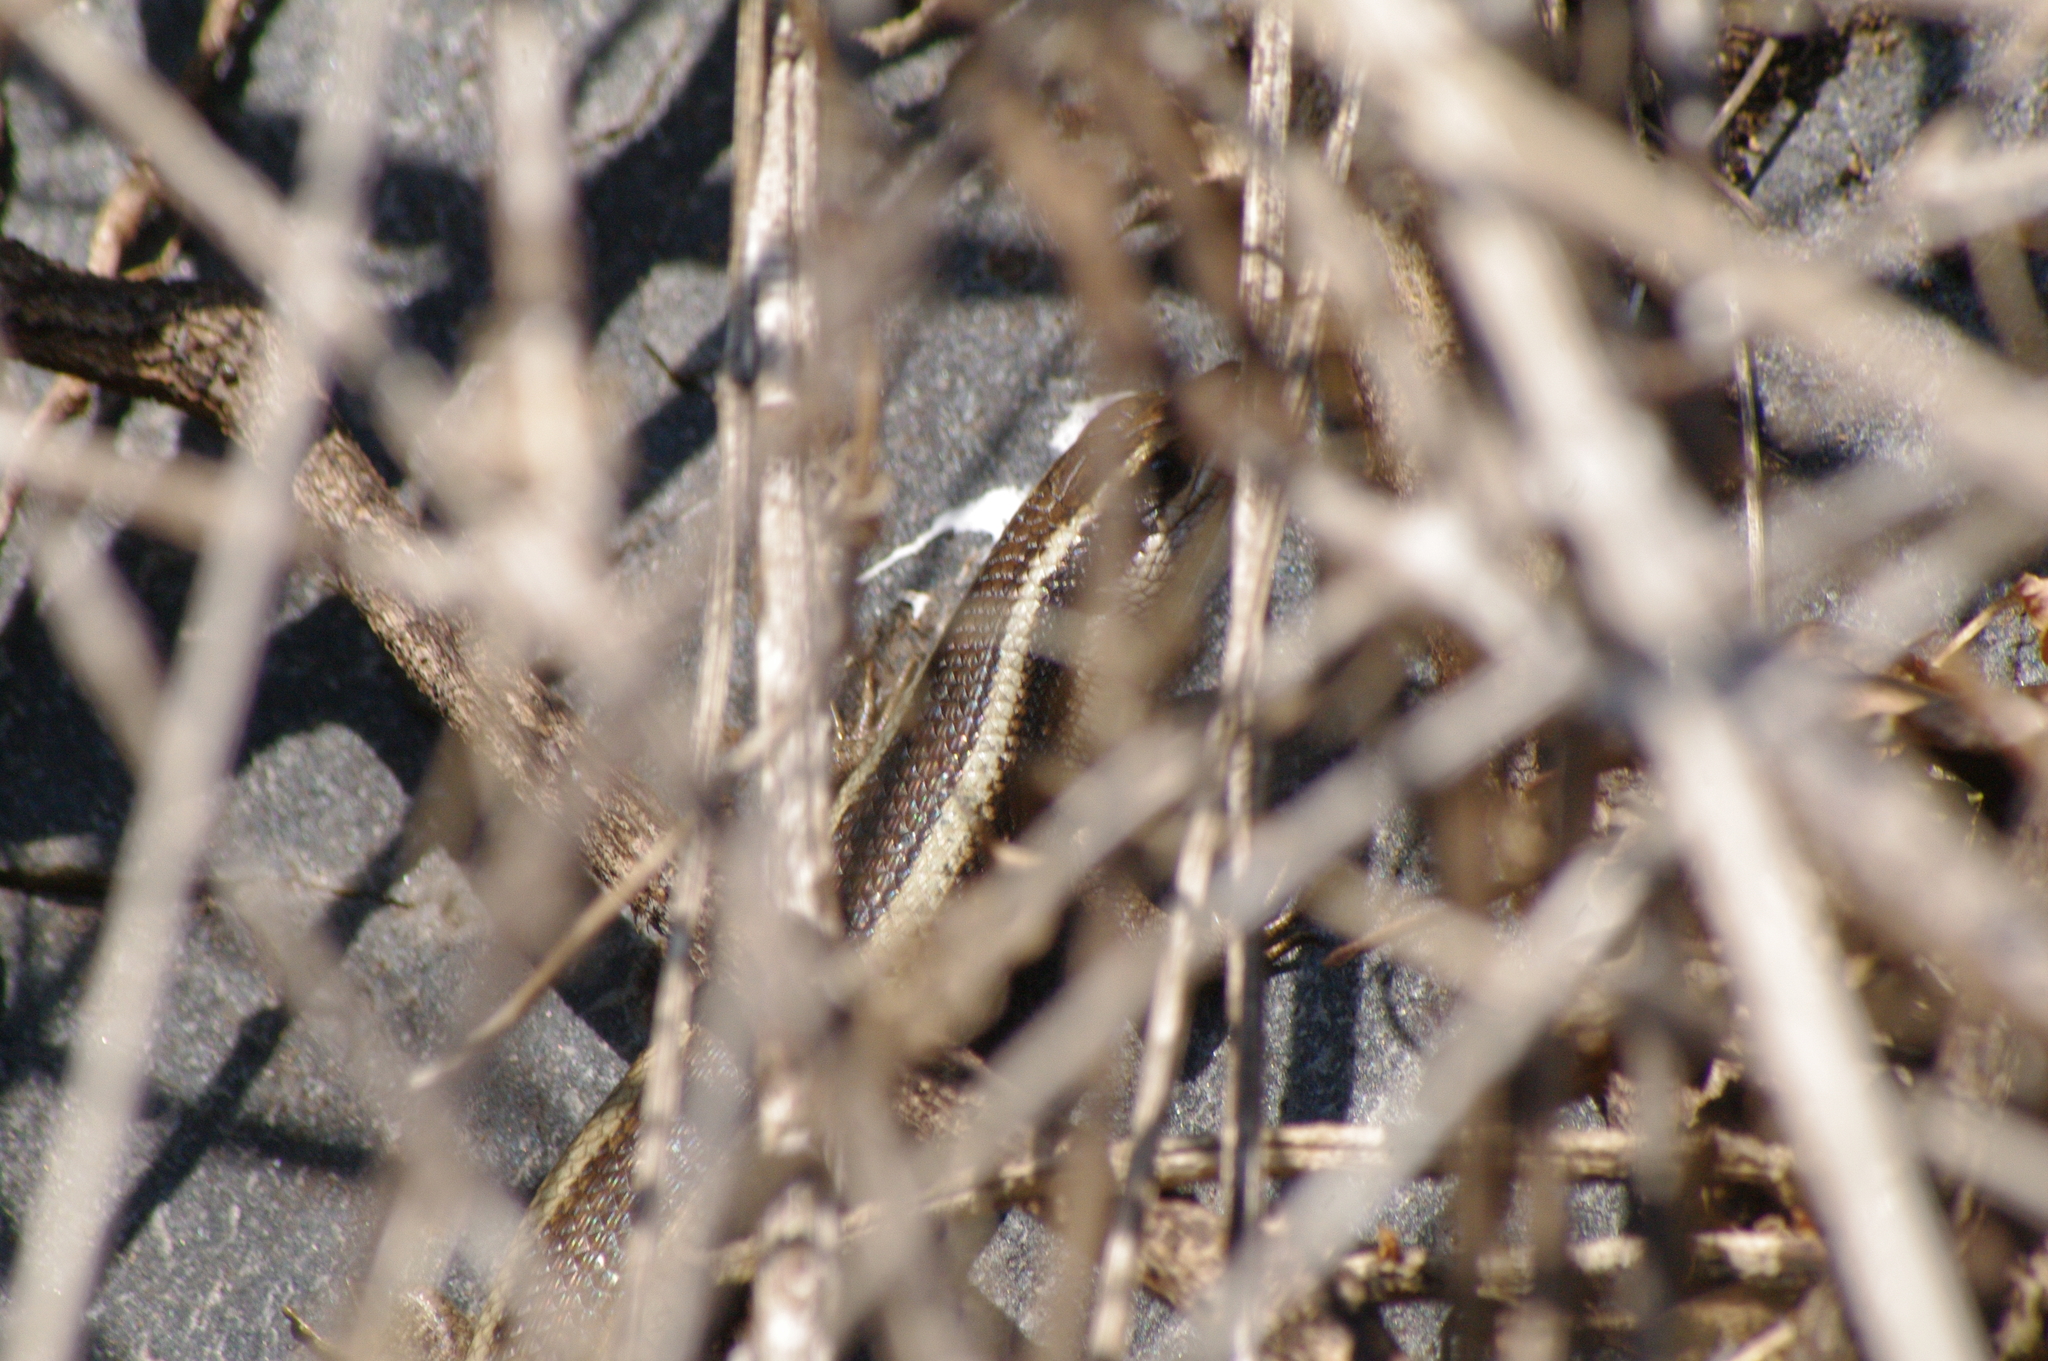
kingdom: Animalia
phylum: Chordata
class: Squamata
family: Scincidae
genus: Trachylepis
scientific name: Trachylepis striata
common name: African striped mabuya
